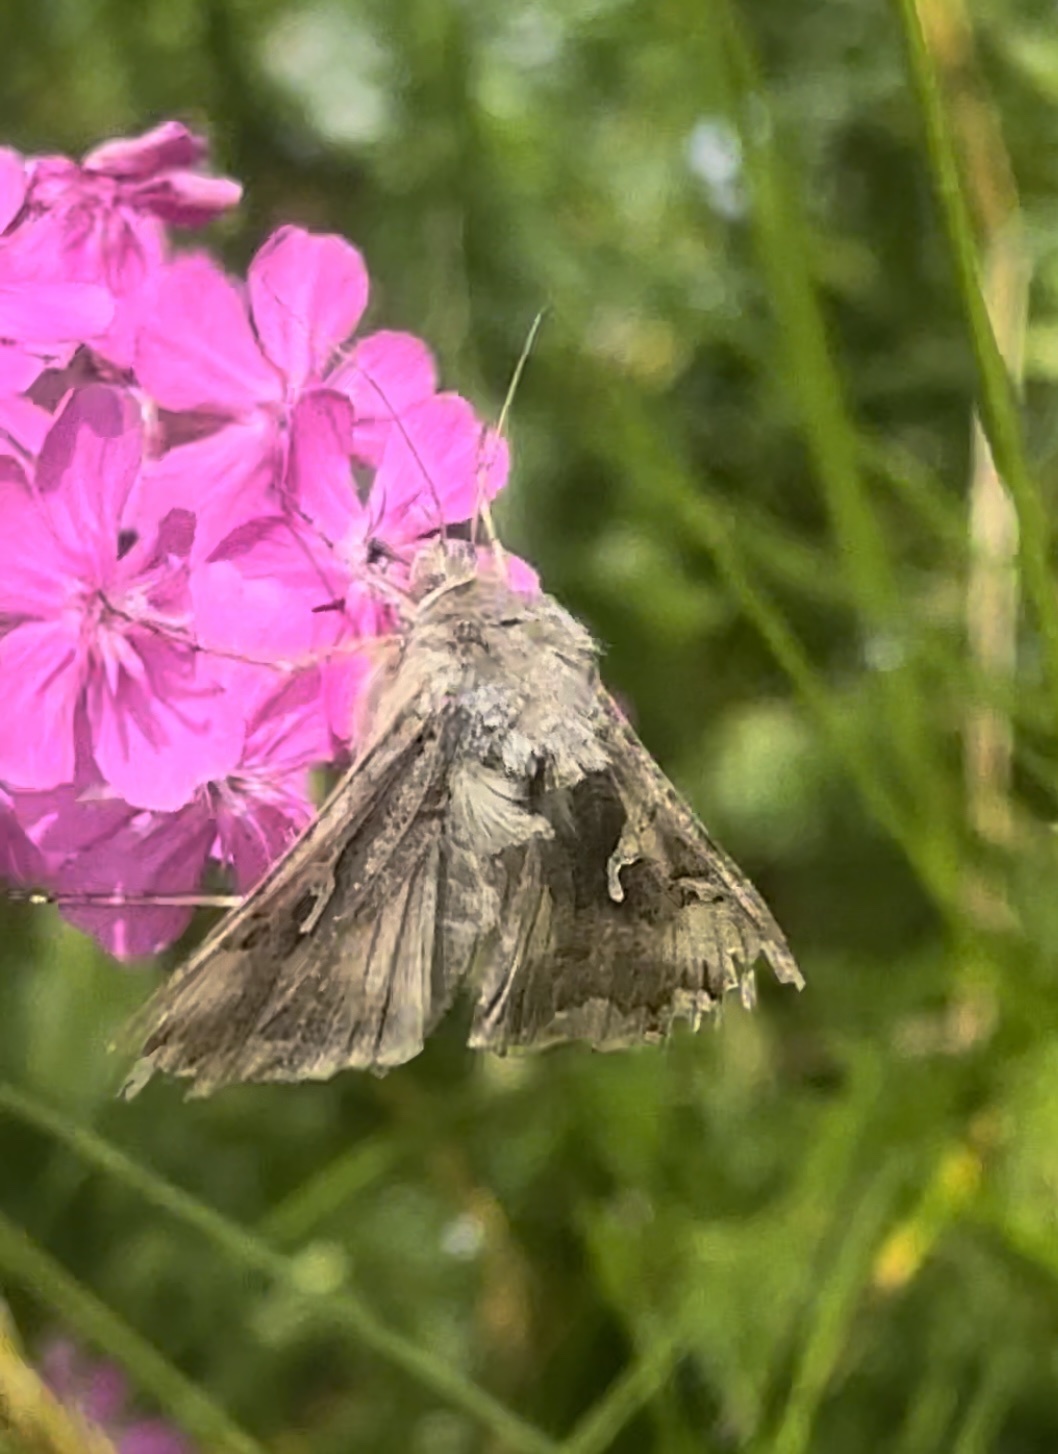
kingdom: Animalia
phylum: Arthropoda
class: Insecta
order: Lepidoptera
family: Noctuidae
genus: Autographa
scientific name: Autographa gamma
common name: Silver y
